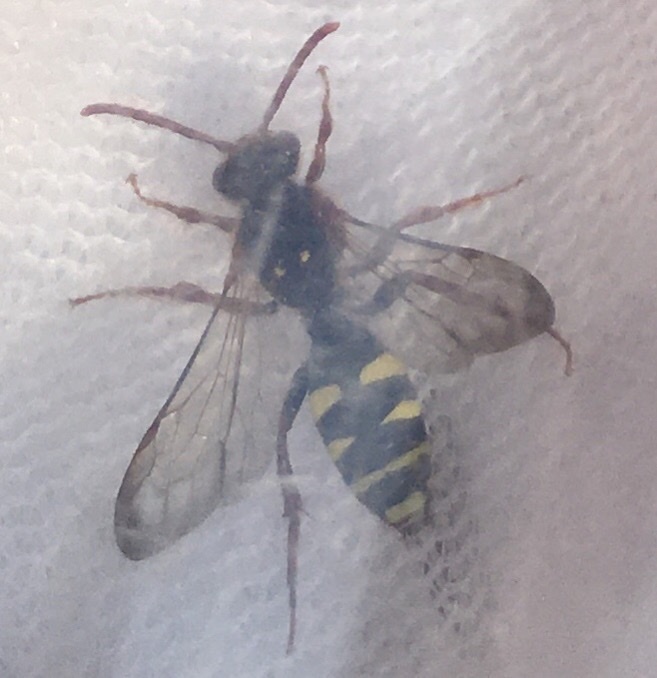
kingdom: Animalia
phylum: Arthropoda
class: Insecta
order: Hymenoptera
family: Apidae
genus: Nomada
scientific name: Nomada marshamella
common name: Marsham's nomad bee
